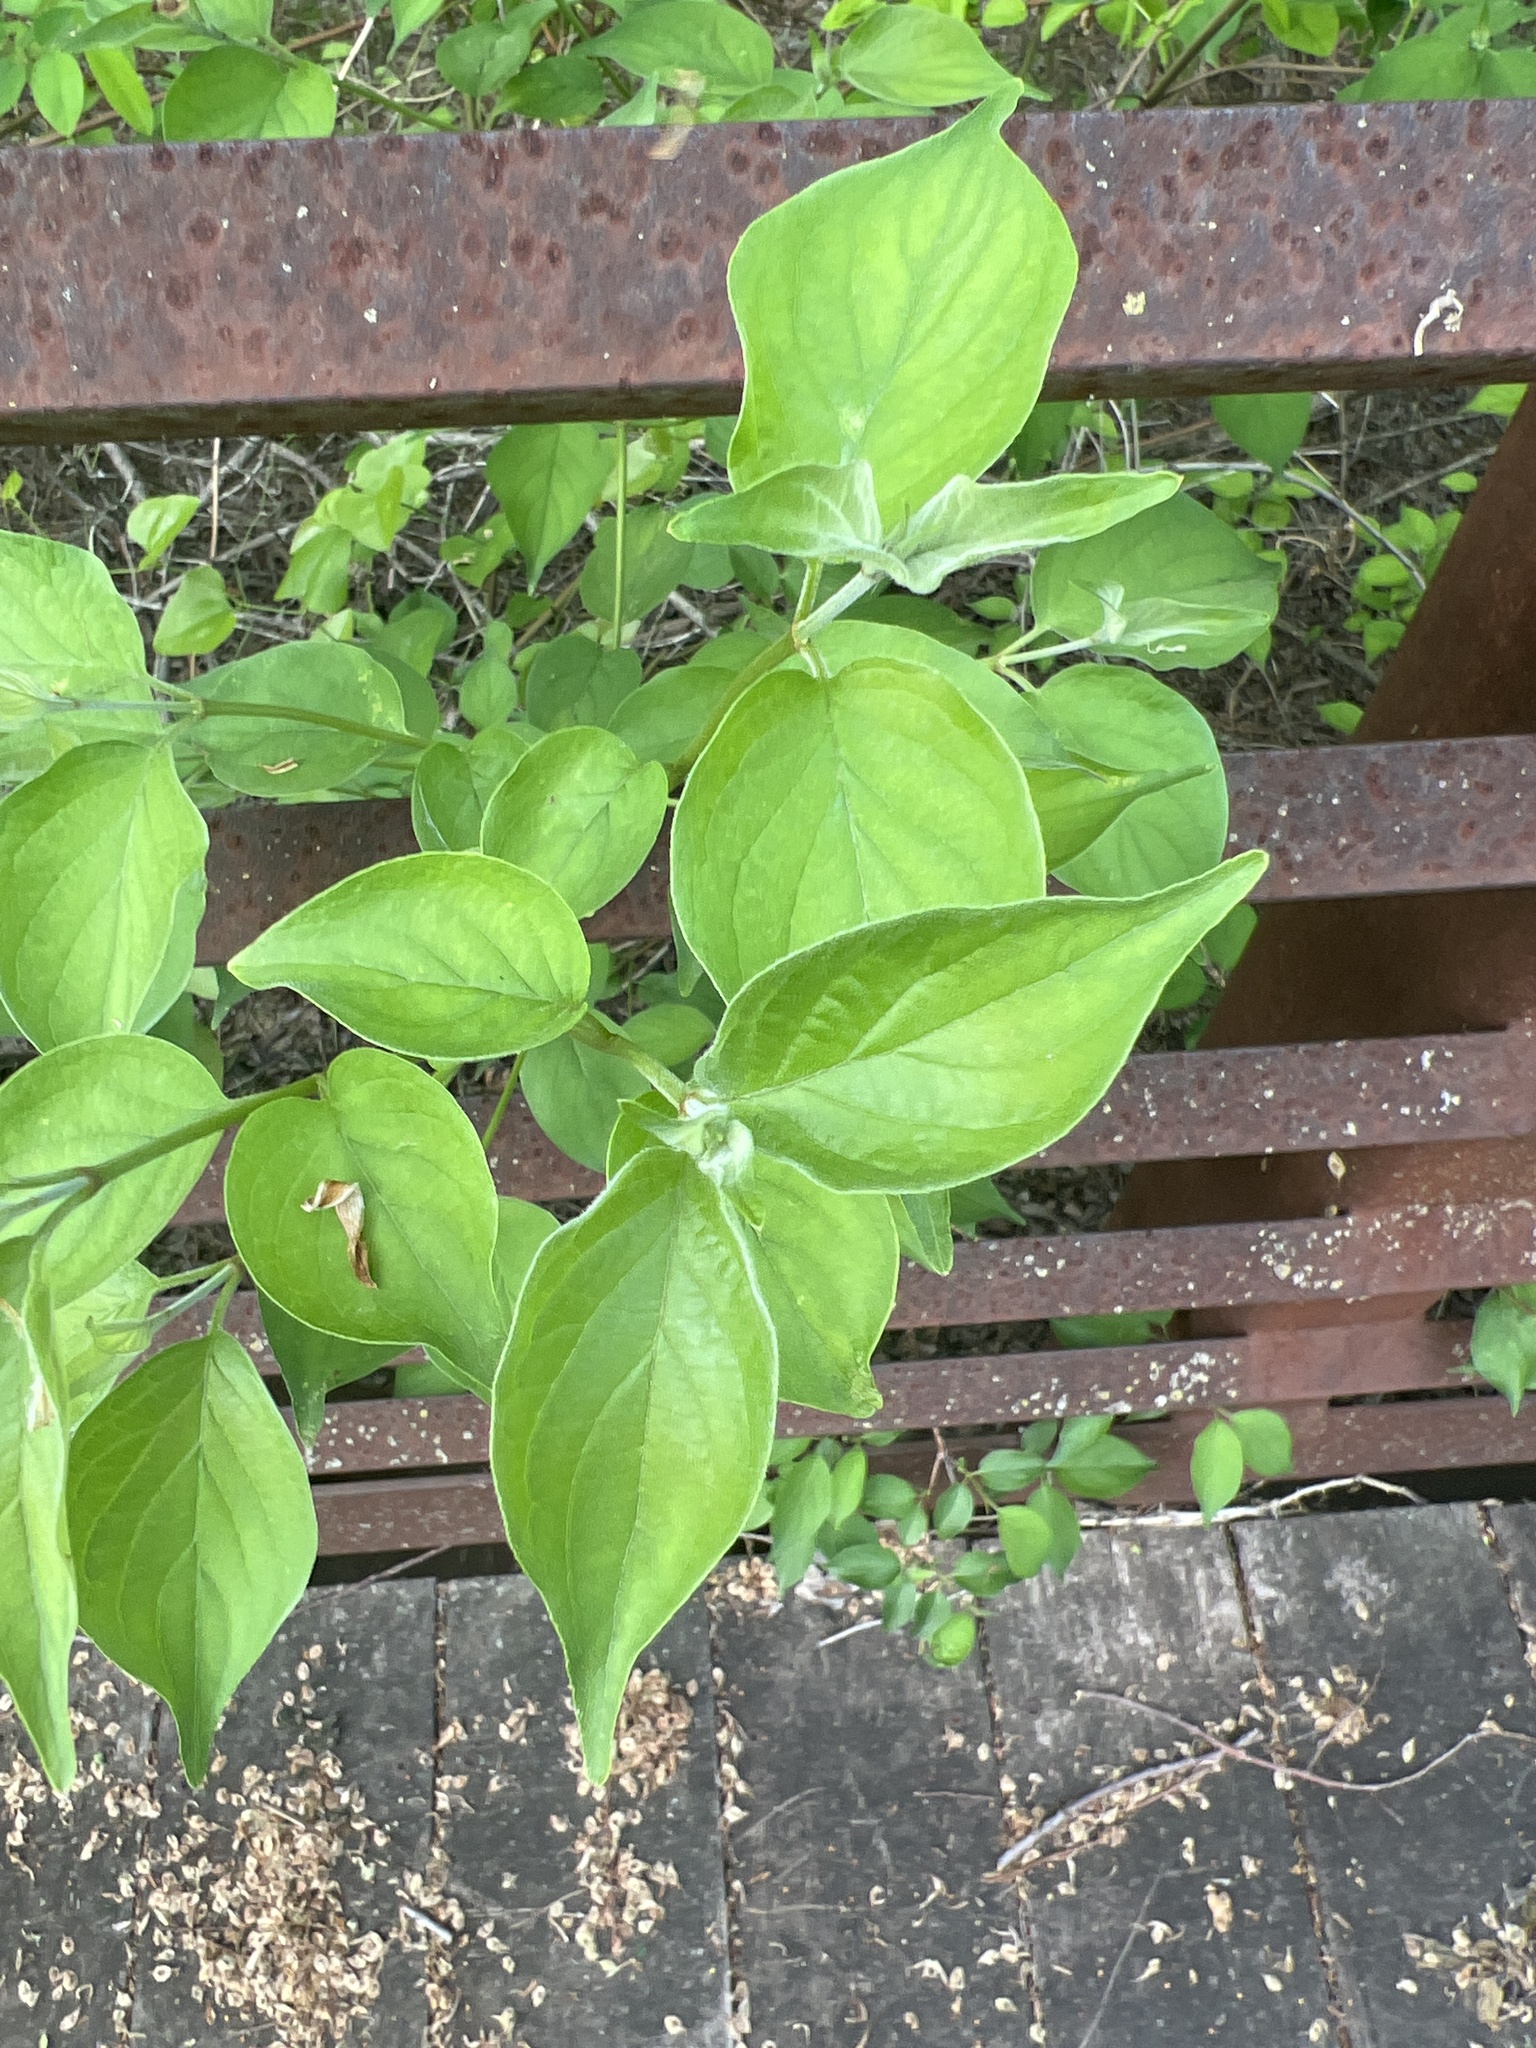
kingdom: Plantae
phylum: Tracheophyta
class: Magnoliopsida
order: Cornales
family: Cornaceae
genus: Cornus
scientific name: Cornus drummondii
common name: Rough-leaf dogwood
